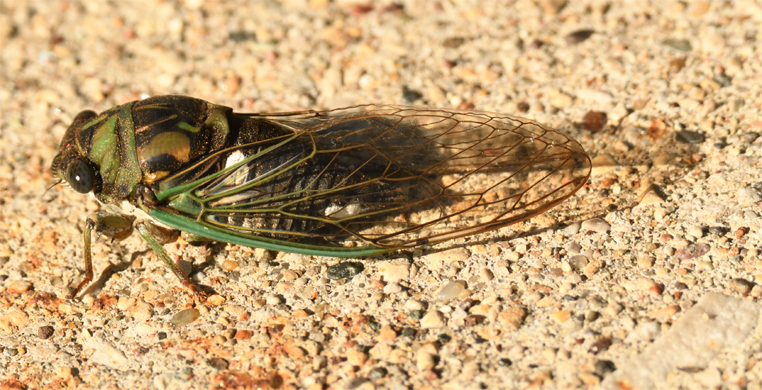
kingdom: Animalia
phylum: Arthropoda
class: Insecta
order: Hemiptera
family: Cicadidae
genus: Neotibicen
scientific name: Neotibicen pruinosus
